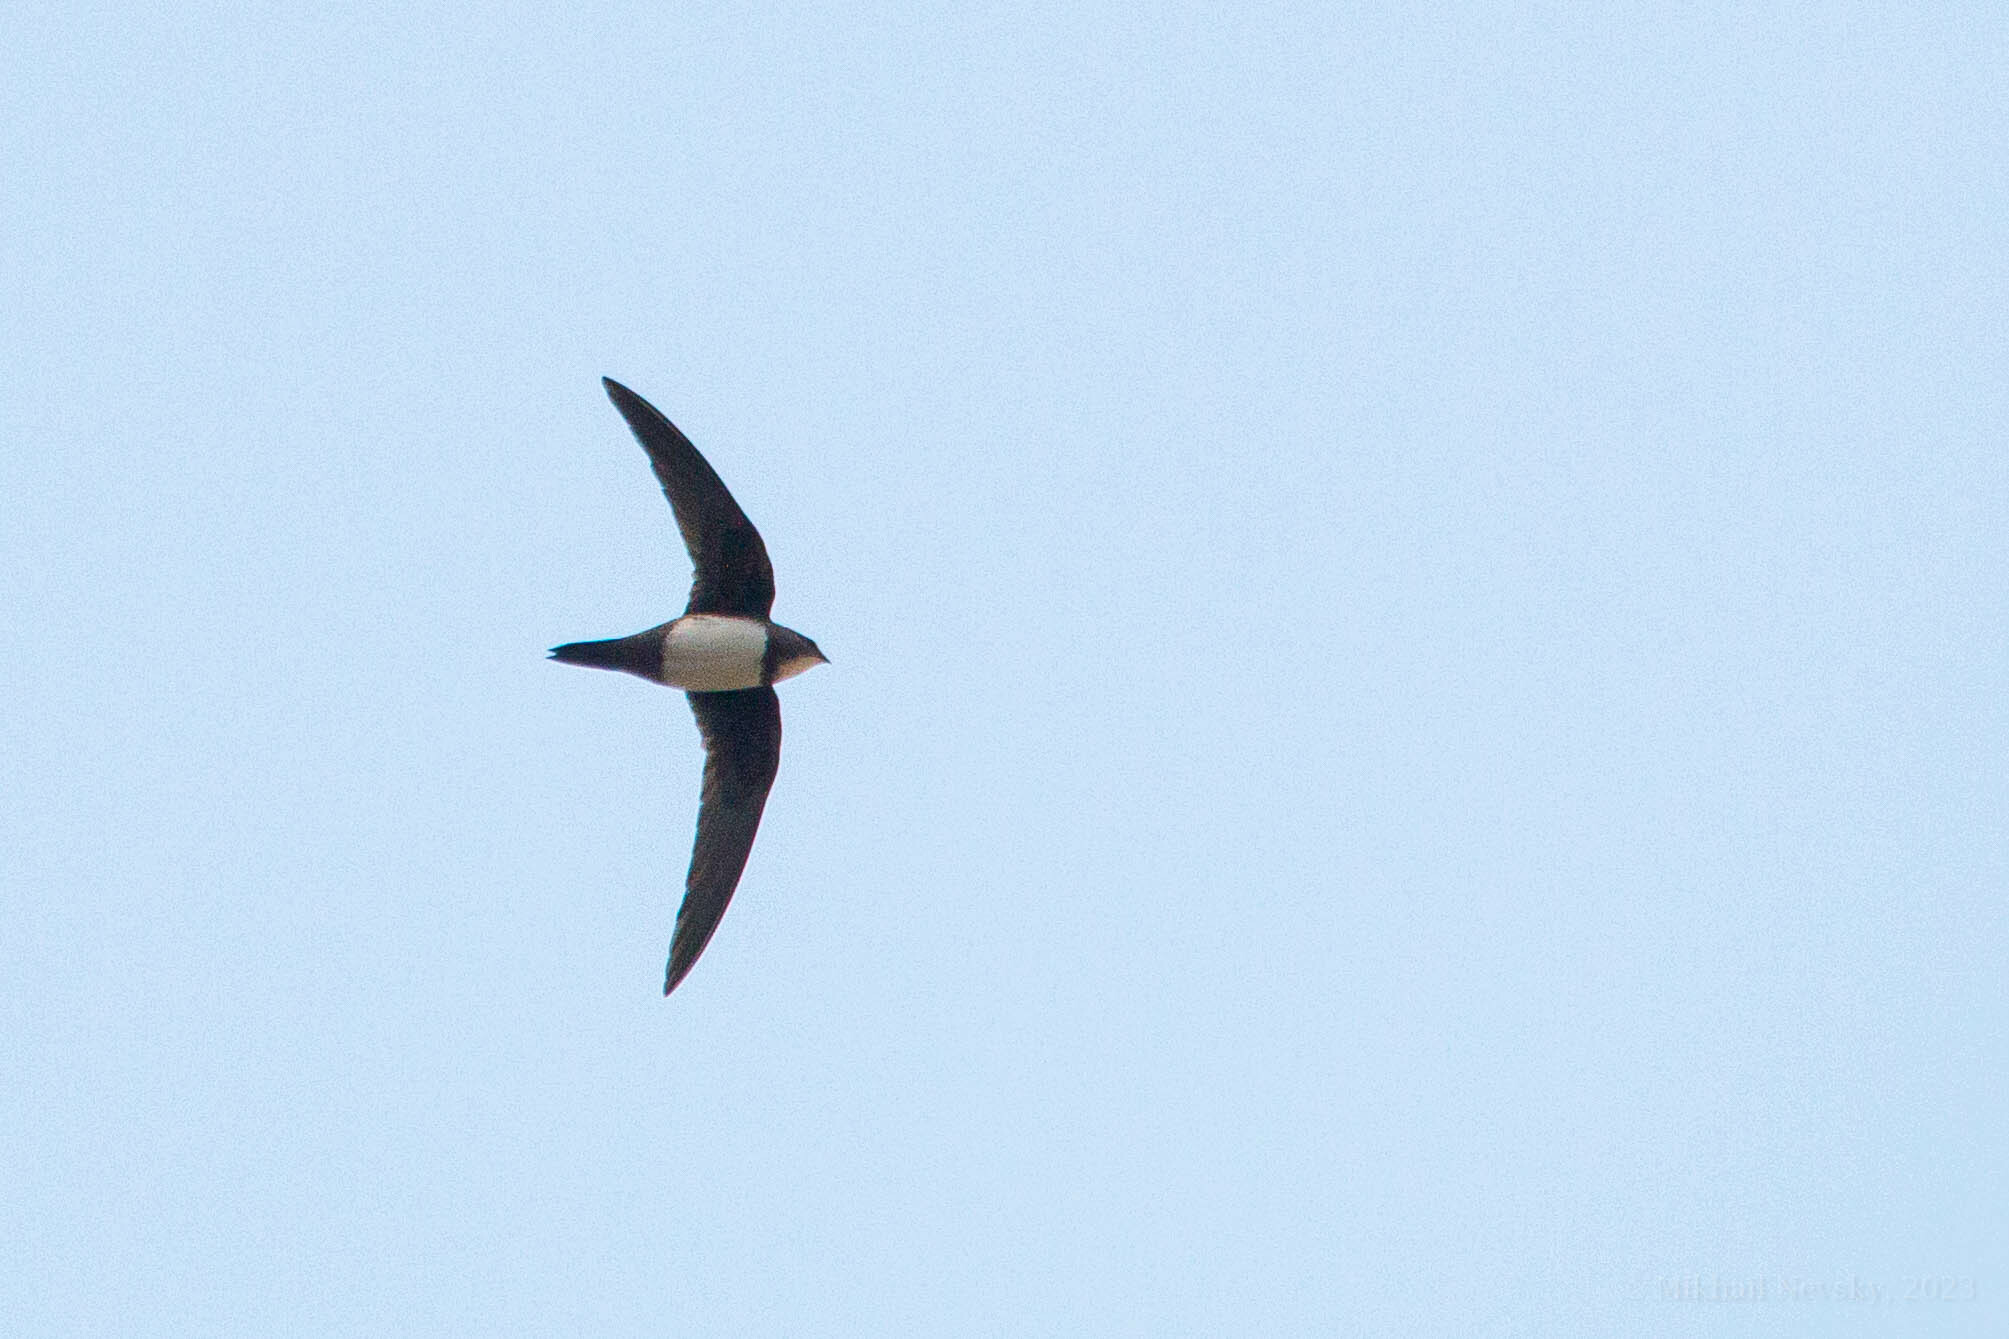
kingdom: Animalia
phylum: Chordata
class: Aves
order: Apodiformes
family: Apodidae
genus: Tachymarptis
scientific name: Tachymarptis melba
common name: Alpine swift
